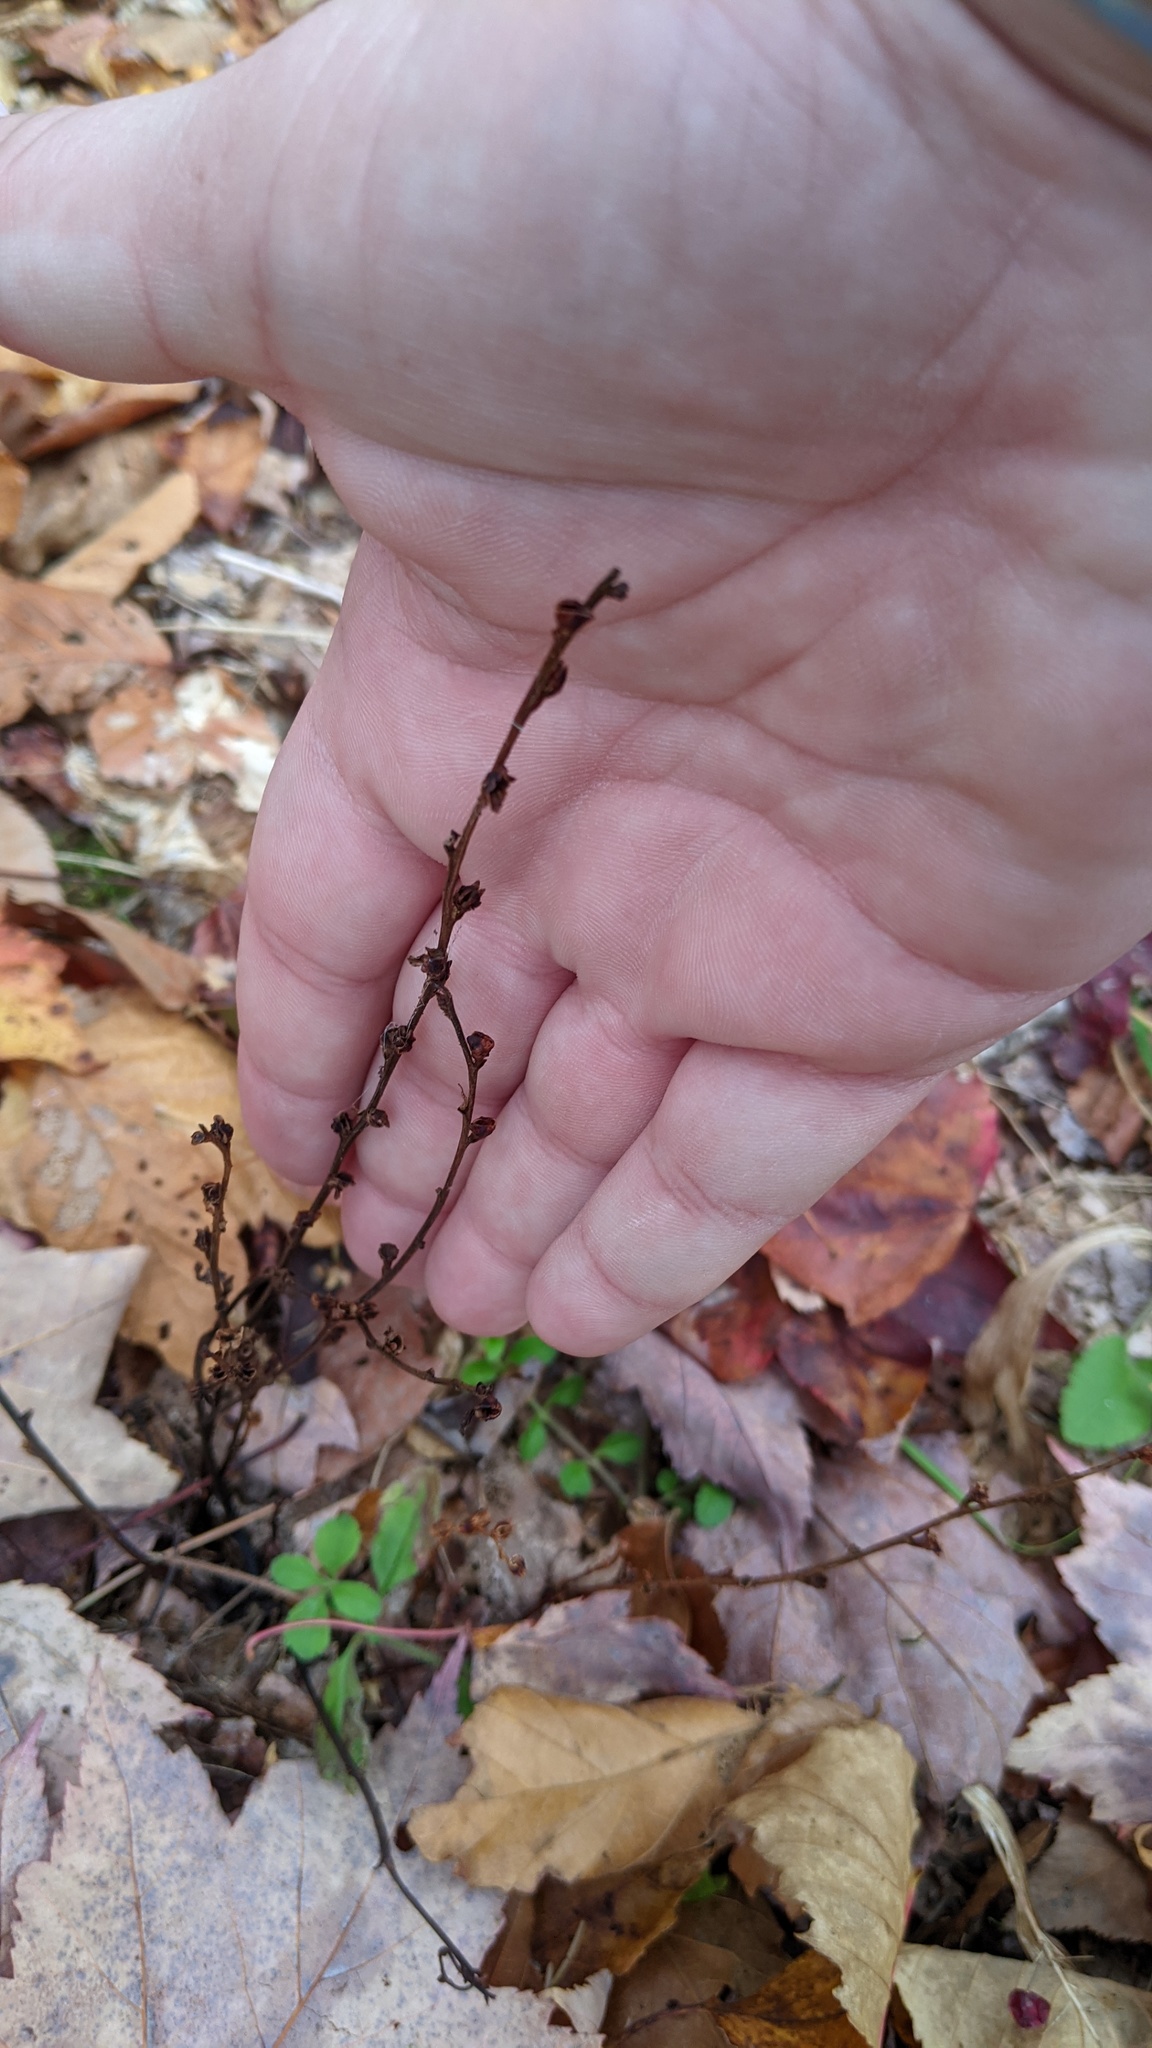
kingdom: Plantae
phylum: Tracheophyta
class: Magnoliopsida
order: Lamiales
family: Orobanchaceae
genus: Epifagus
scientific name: Epifagus virginiana
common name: Beechdrops
